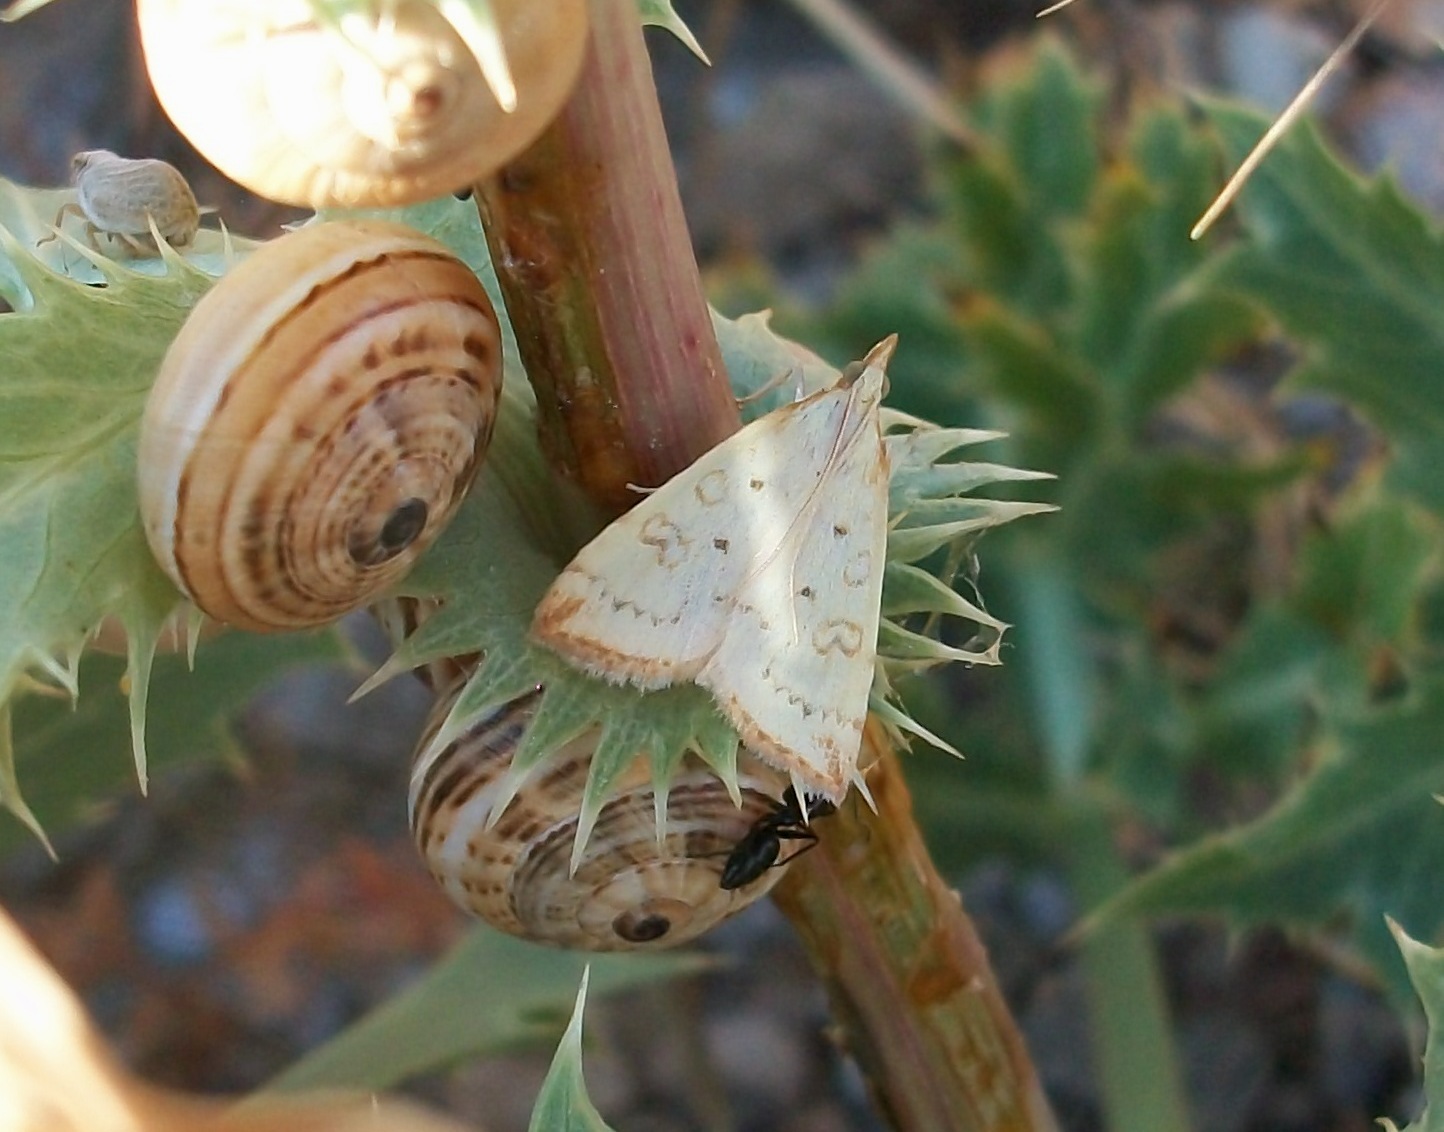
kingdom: Animalia
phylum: Arthropoda
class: Insecta
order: Lepidoptera
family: Crambidae
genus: Udea
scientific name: Udea institalis
